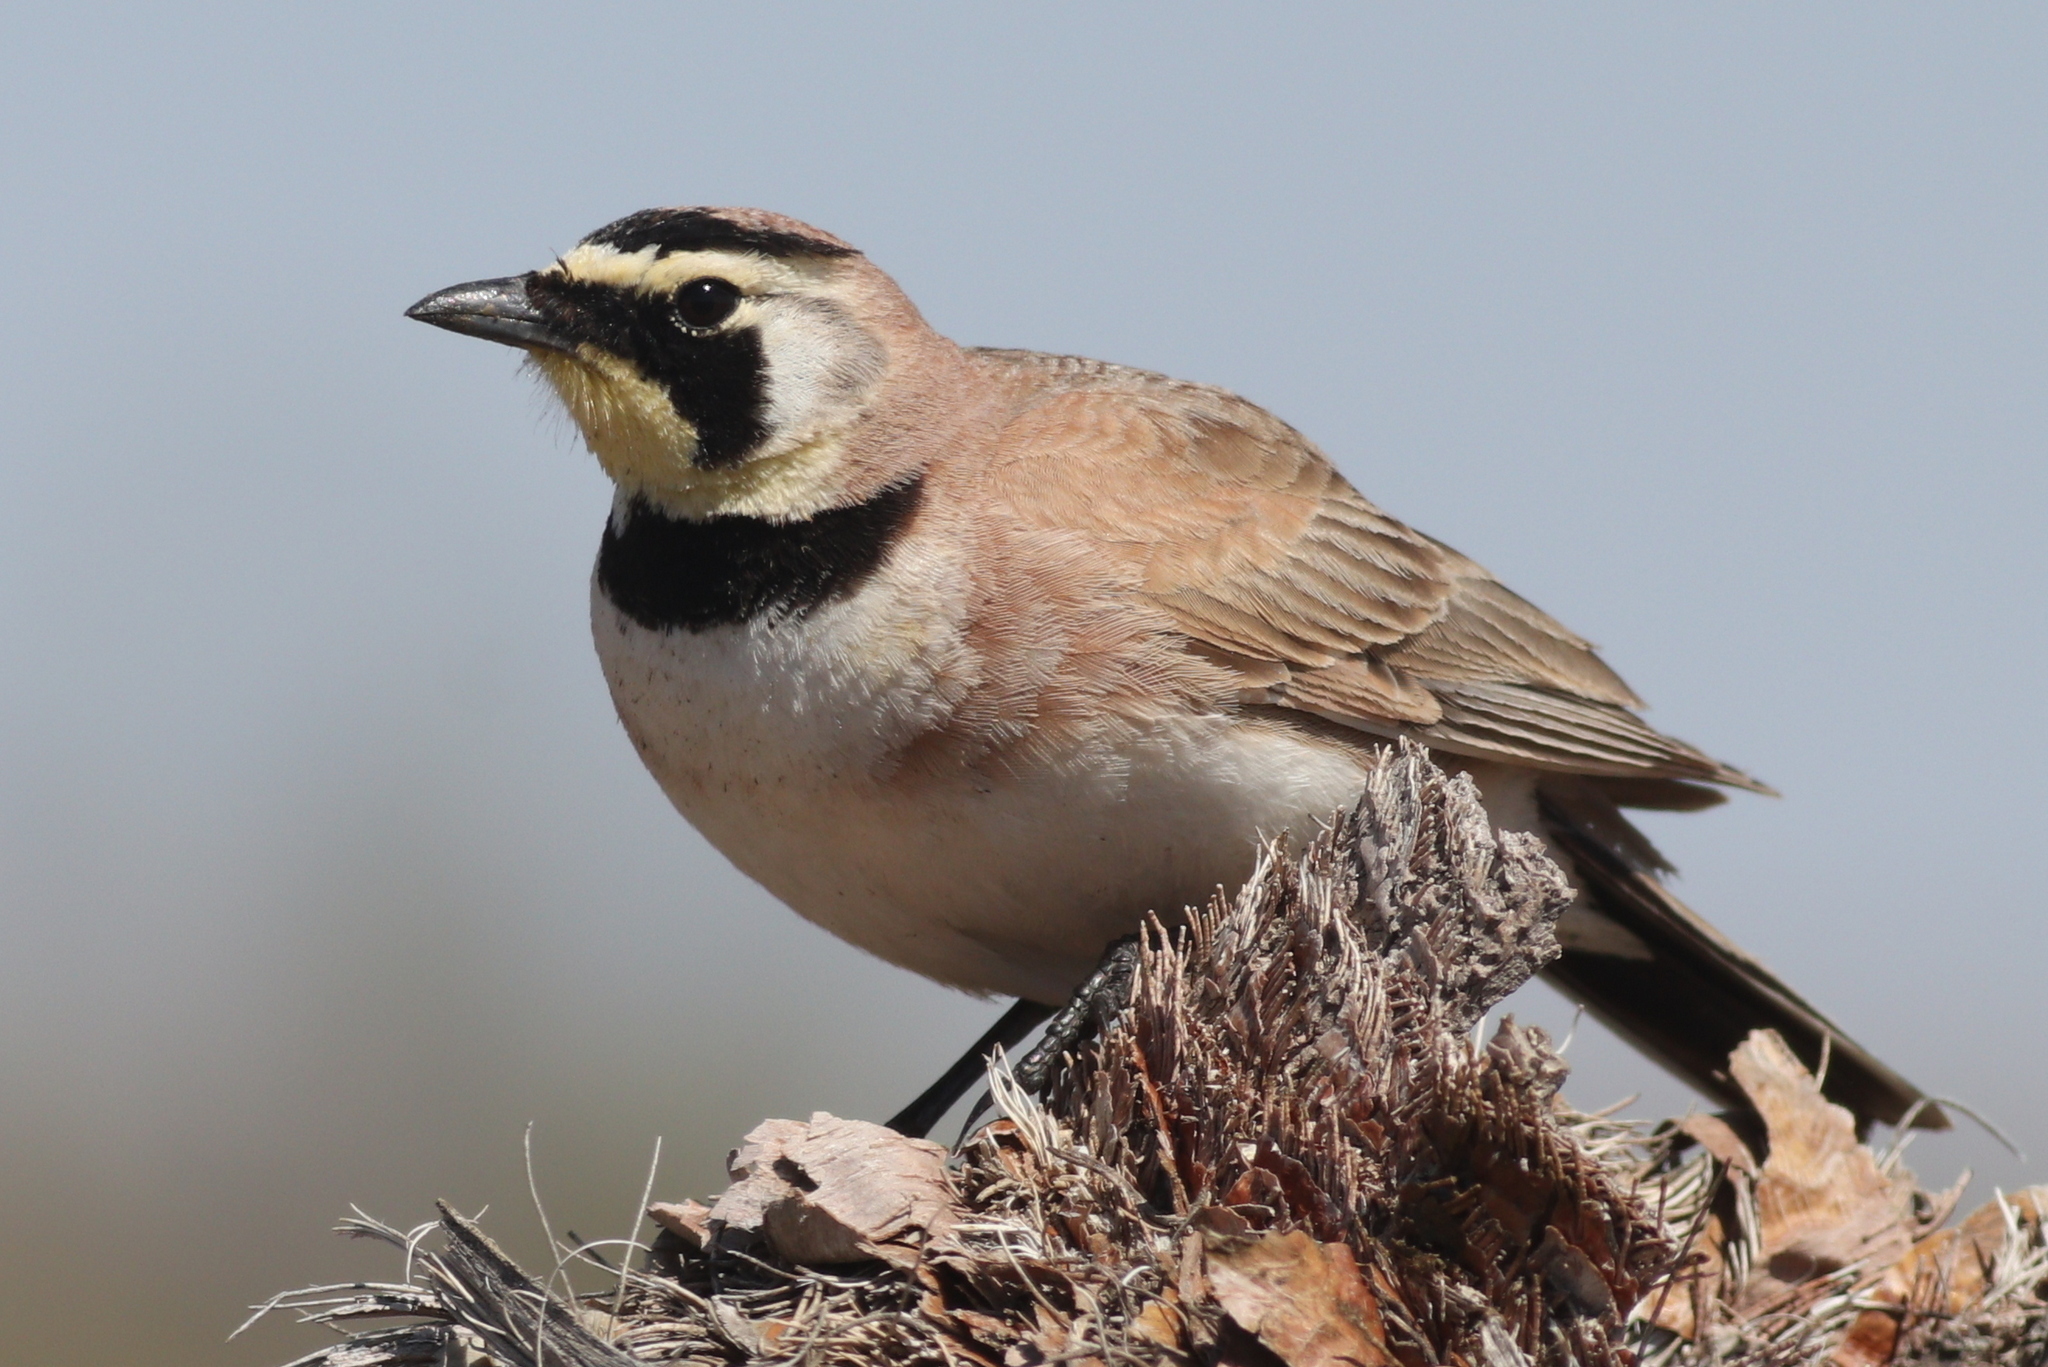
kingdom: Animalia
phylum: Chordata
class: Aves
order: Passeriformes
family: Alaudidae
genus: Eremophila
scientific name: Eremophila alpestris
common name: Horned lark
